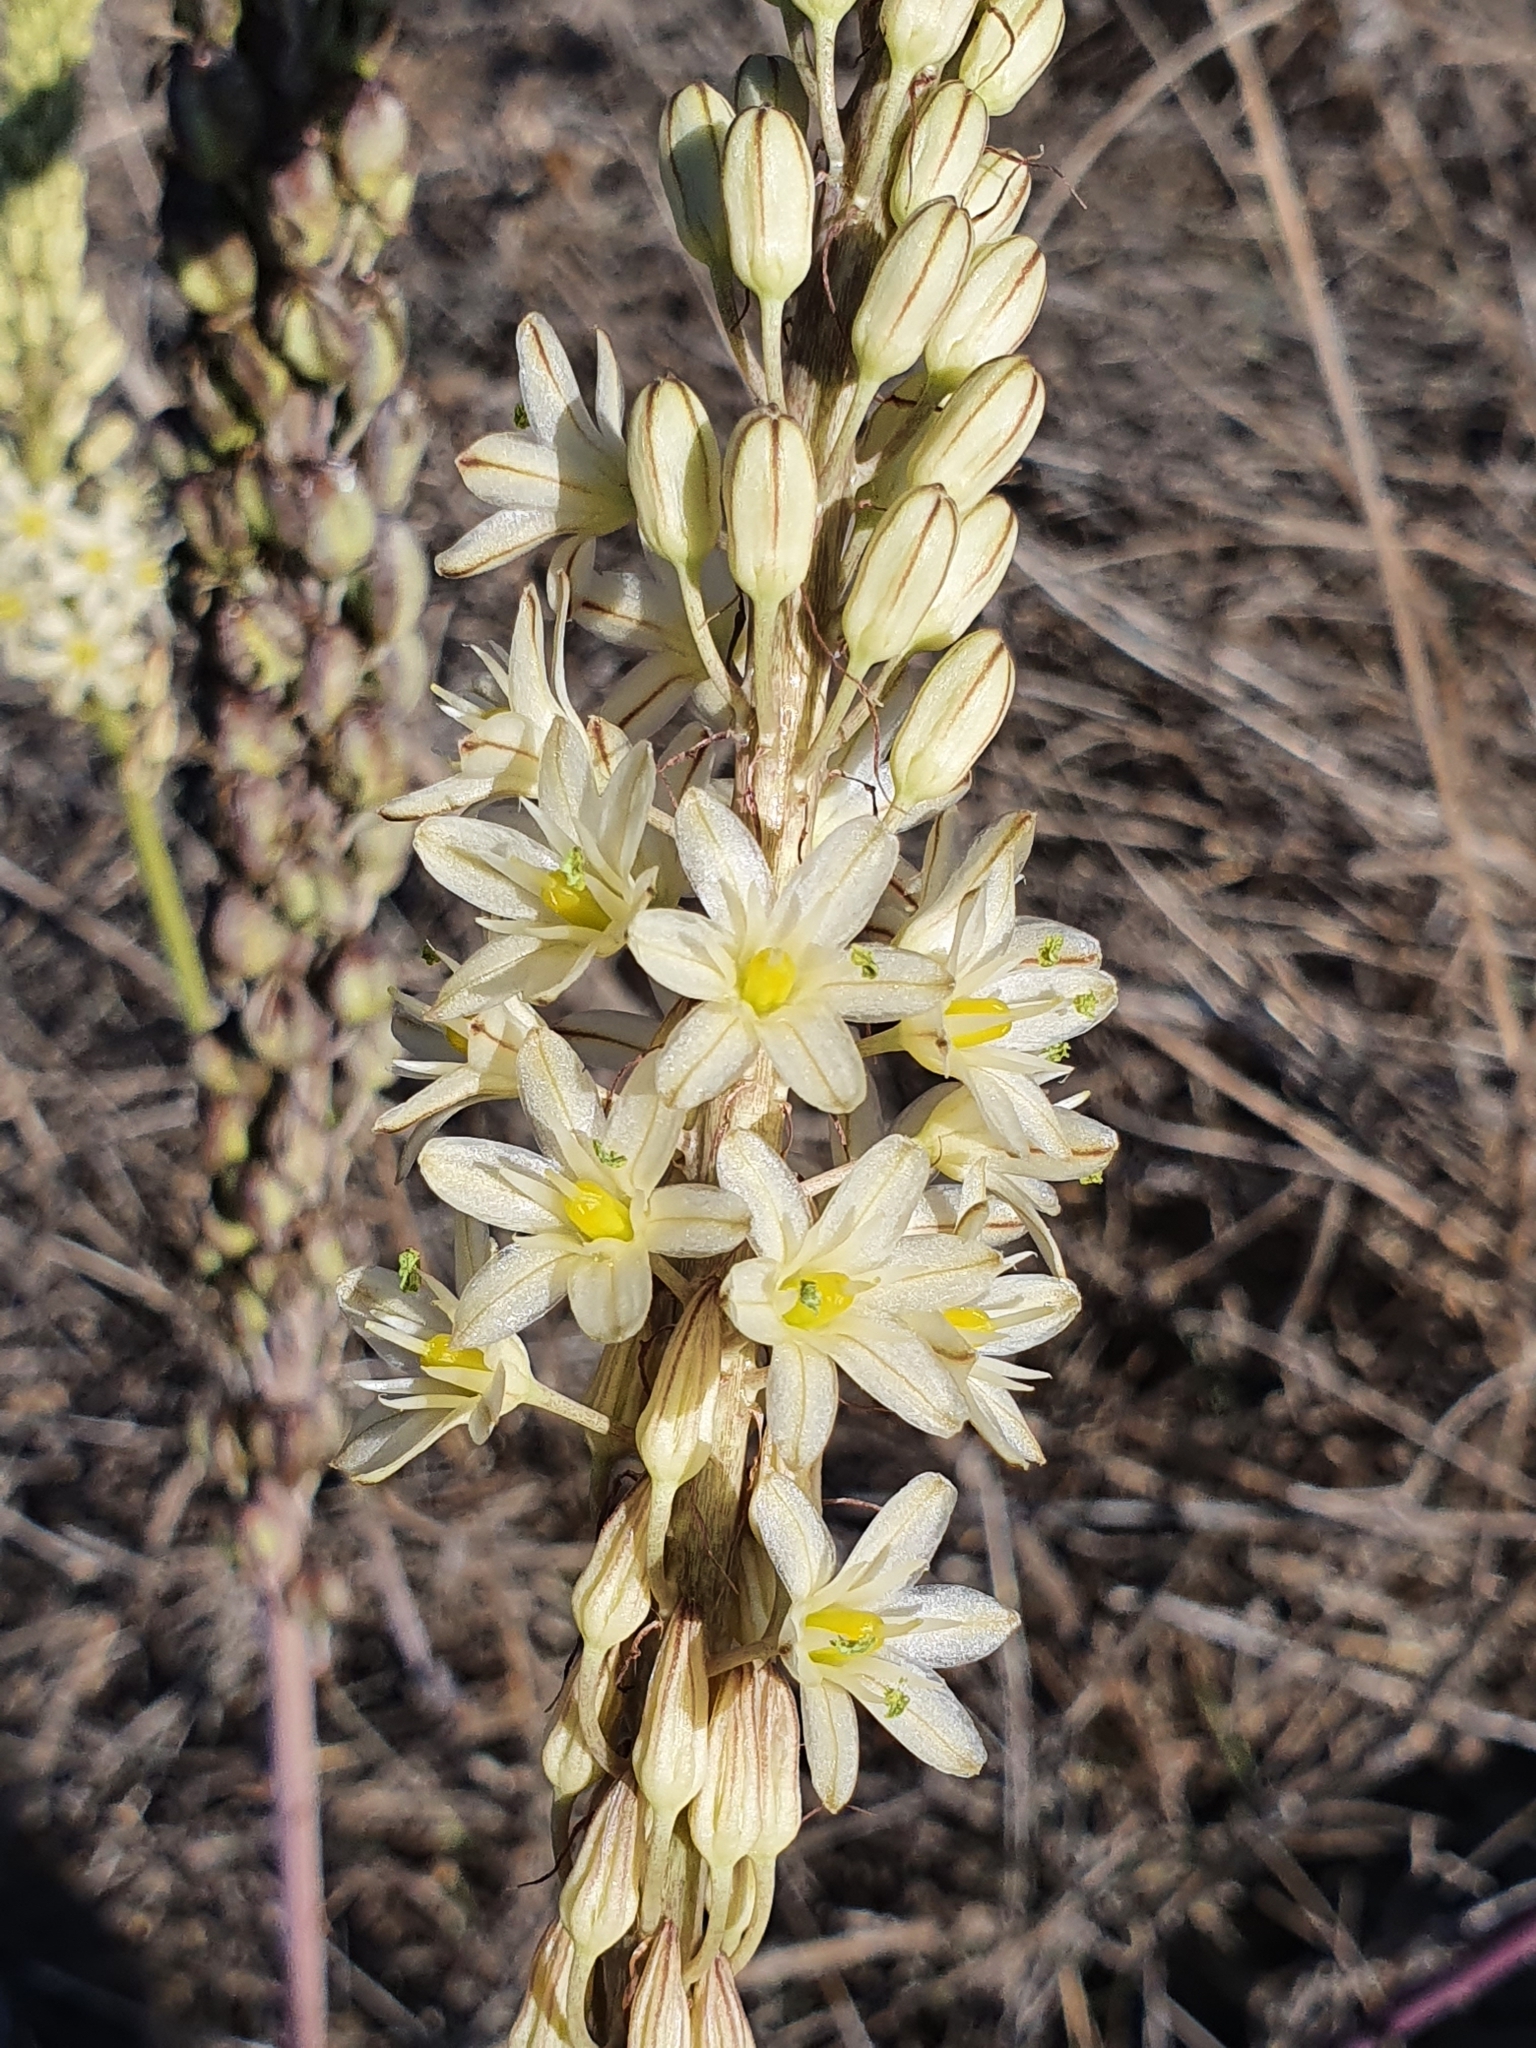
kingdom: Plantae
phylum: Tracheophyta
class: Liliopsida
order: Asparagales
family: Asparagaceae
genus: Drimia
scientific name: Drimia anthericoides
